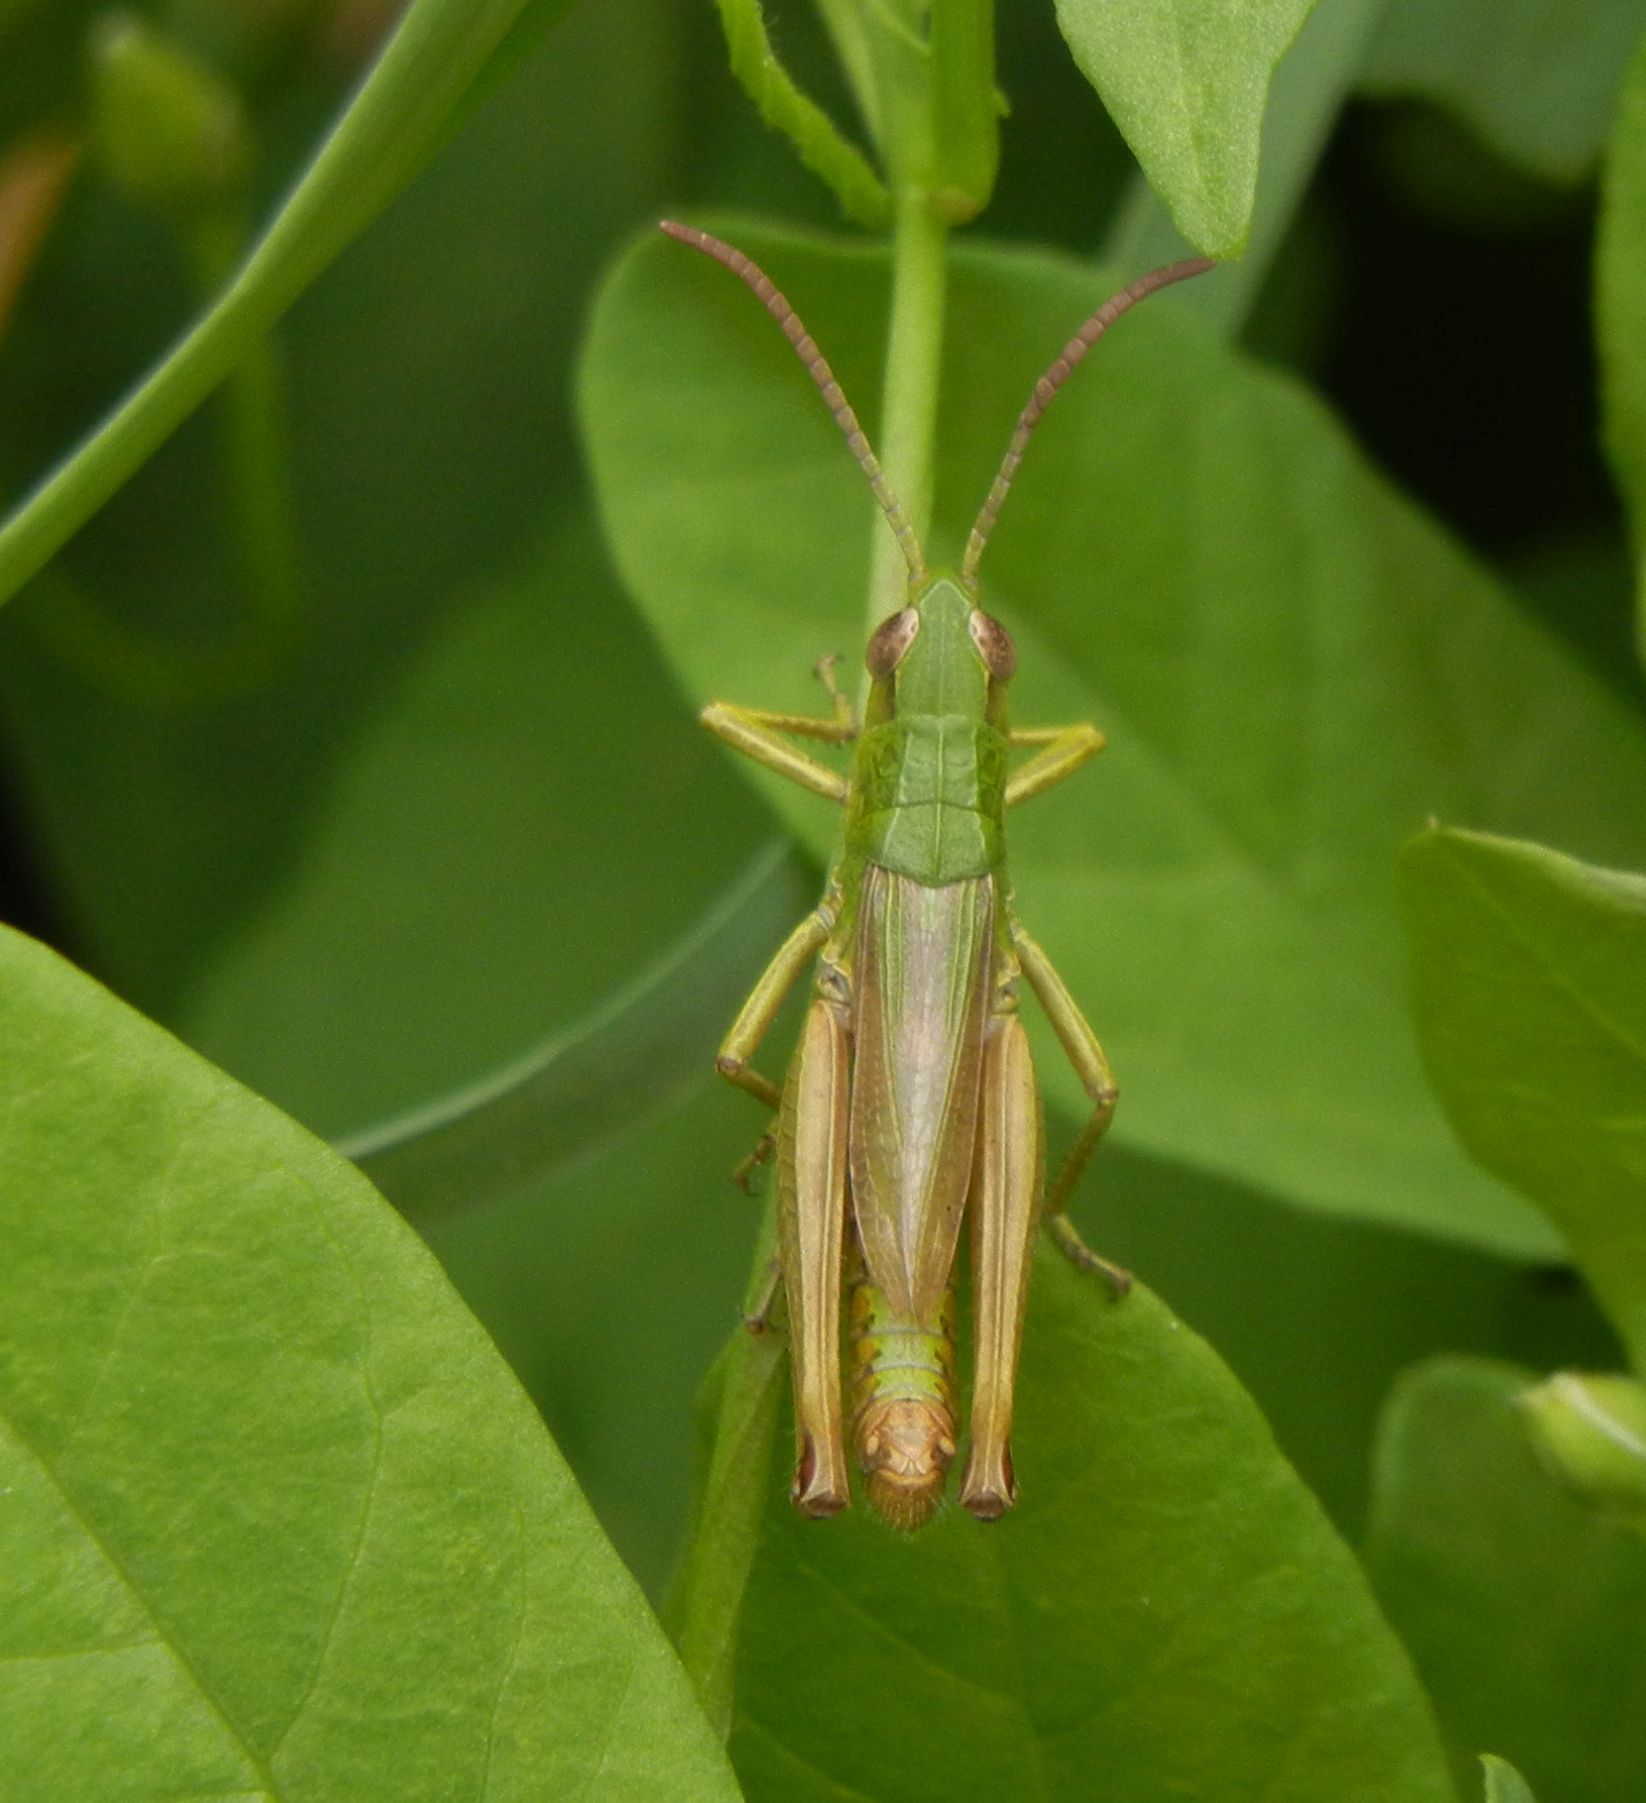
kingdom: Animalia
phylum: Arthropoda
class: Insecta
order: Orthoptera
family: Acrididae
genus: Pseudochorthippus
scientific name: Pseudochorthippus parallelus
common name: Meadow grasshopper
